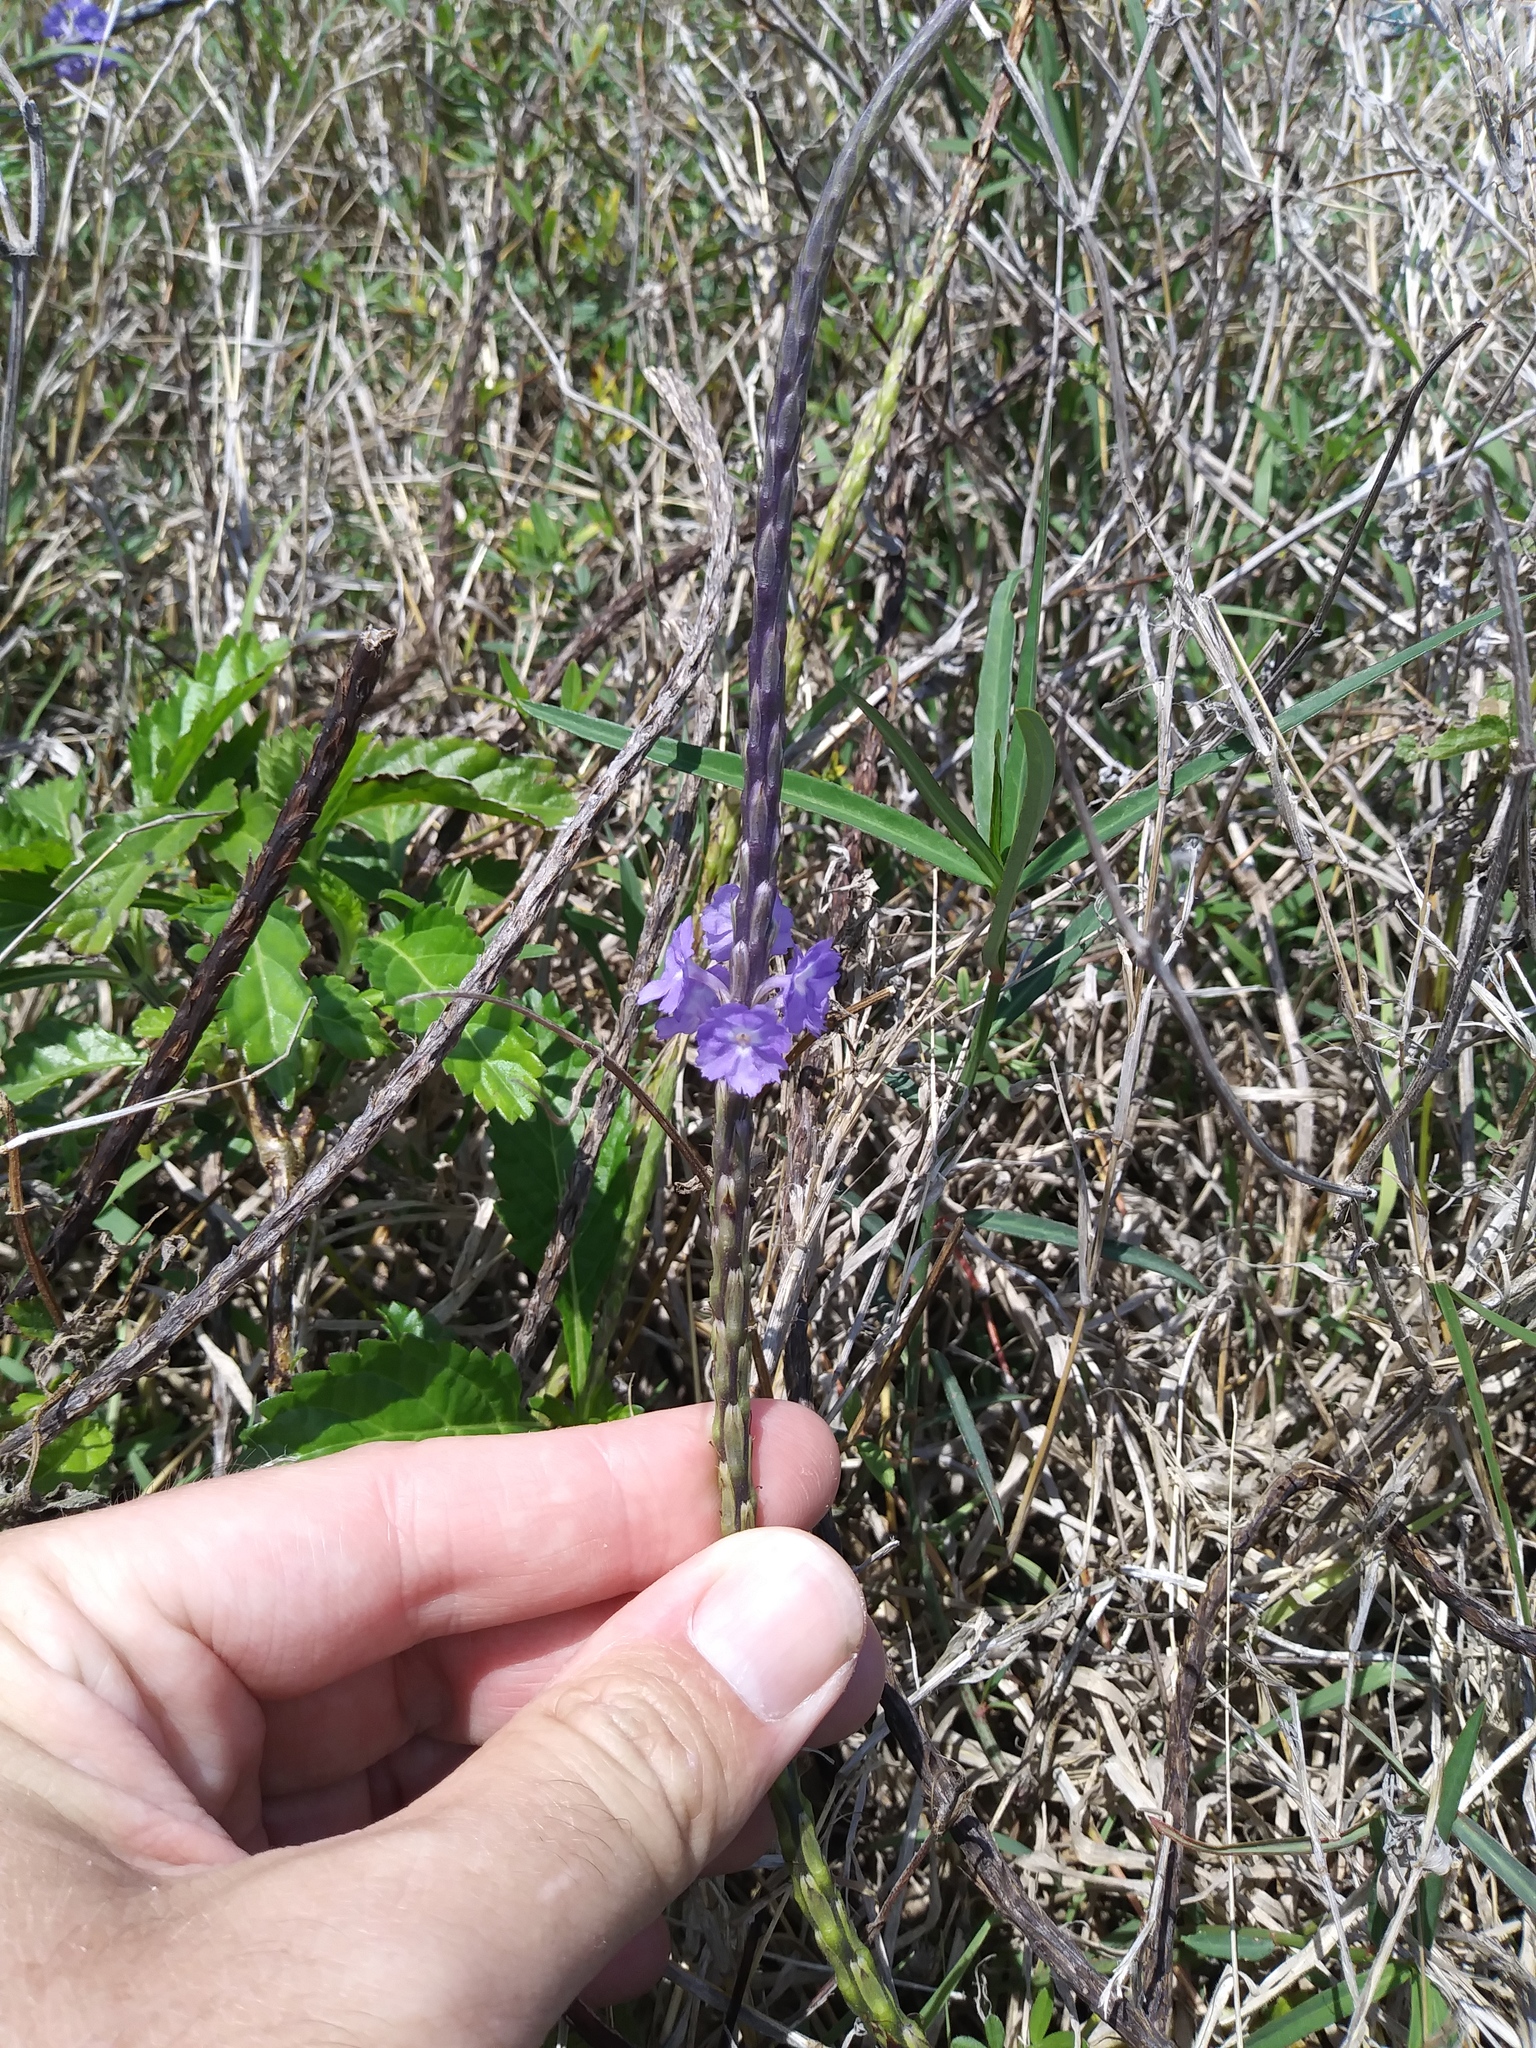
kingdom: Plantae
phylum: Tracheophyta
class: Magnoliopsida
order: Lamiales
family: Verbenaceae
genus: Stachytarpheta
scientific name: Stachytarpheta jamaicensis
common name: Light-blue snakeweed
